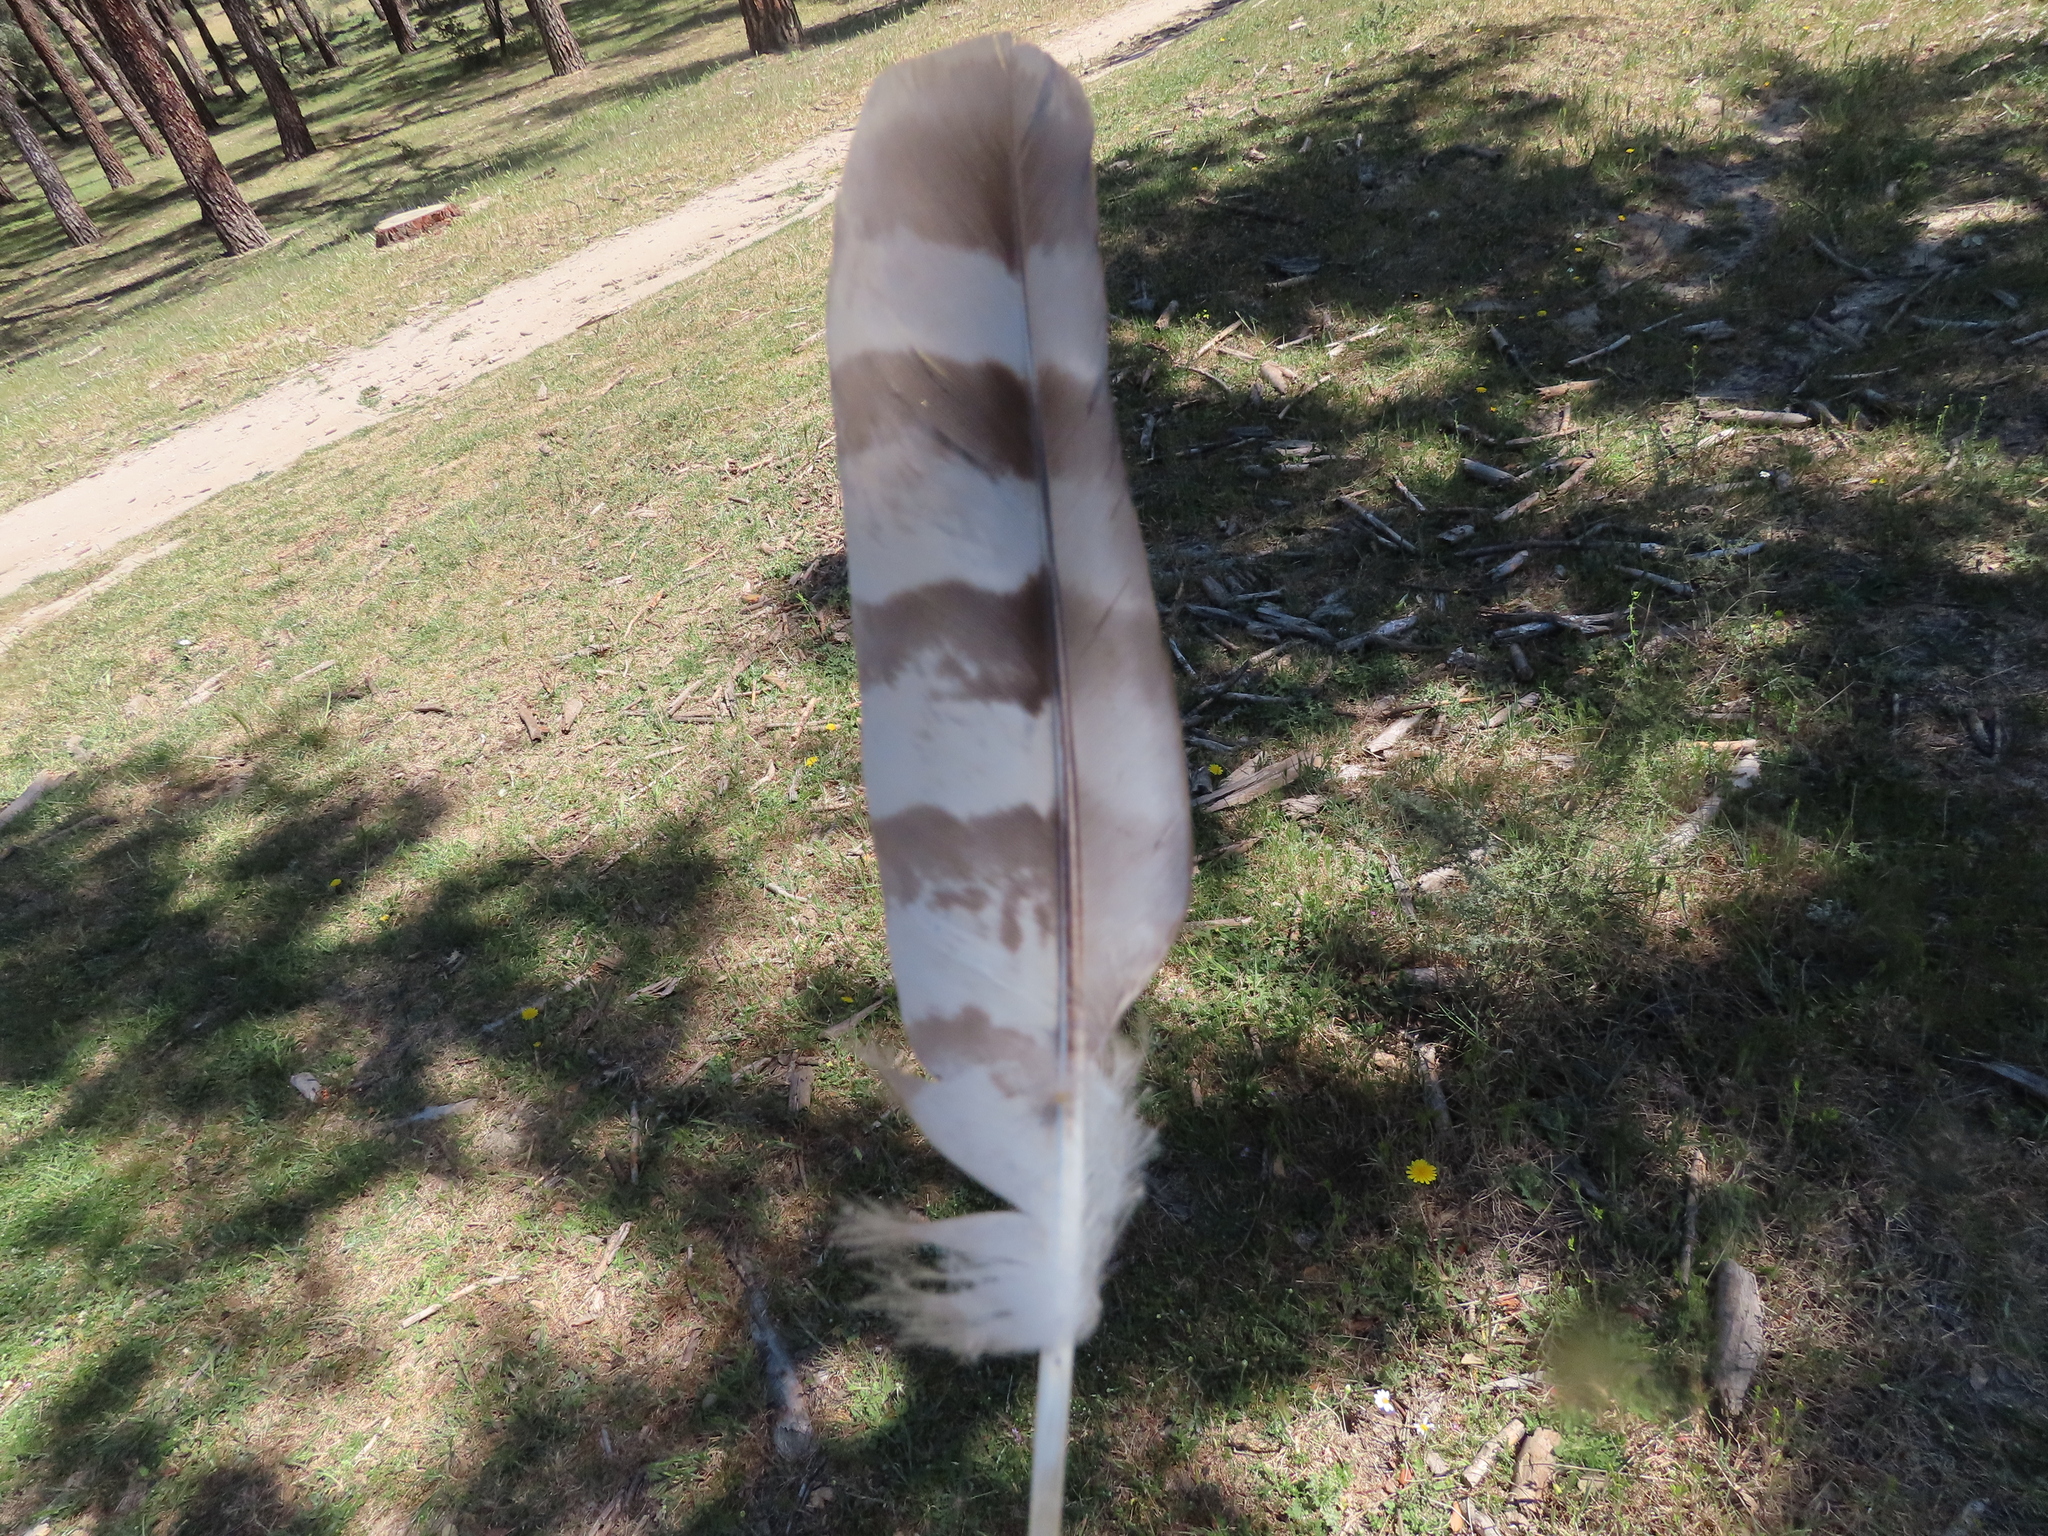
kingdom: Animalia
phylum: Chordata
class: Aves
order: Accipitriformes
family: Accipitridae
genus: Accipiter
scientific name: Accipiter gentilis
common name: Northern goshawk
